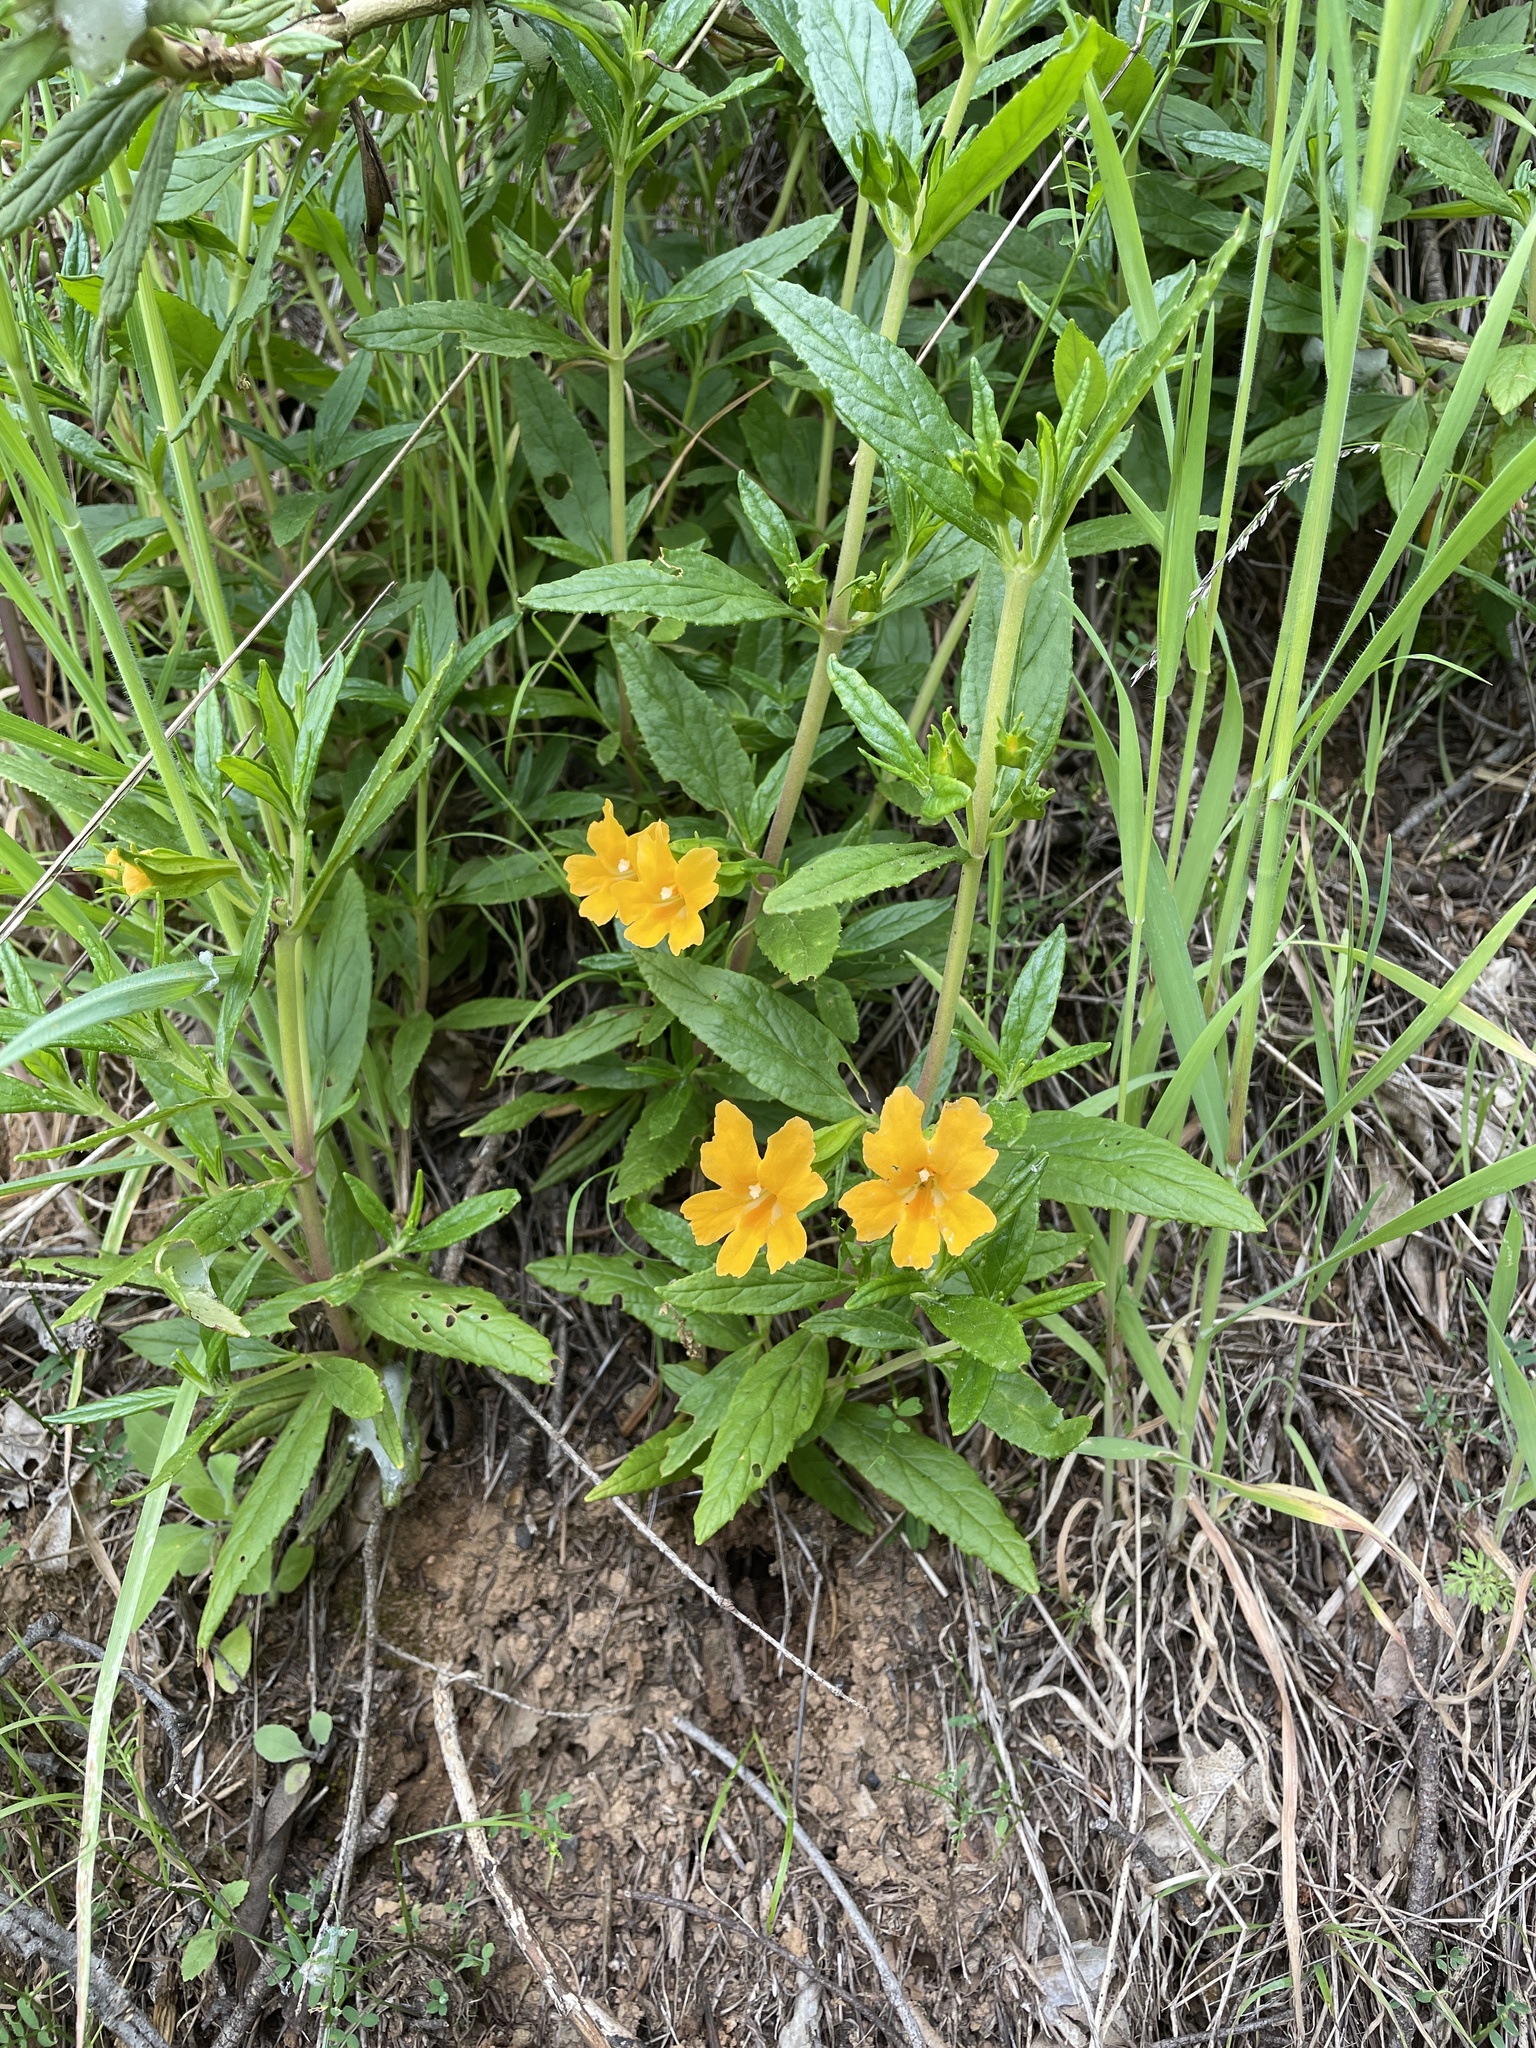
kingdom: Plantae
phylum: Tracheophyta
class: Magnoliopsida
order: Lamiales
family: Phrymaceae
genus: Diplacus
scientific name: Diplacus aurantiacus
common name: Bush monkey-flower
